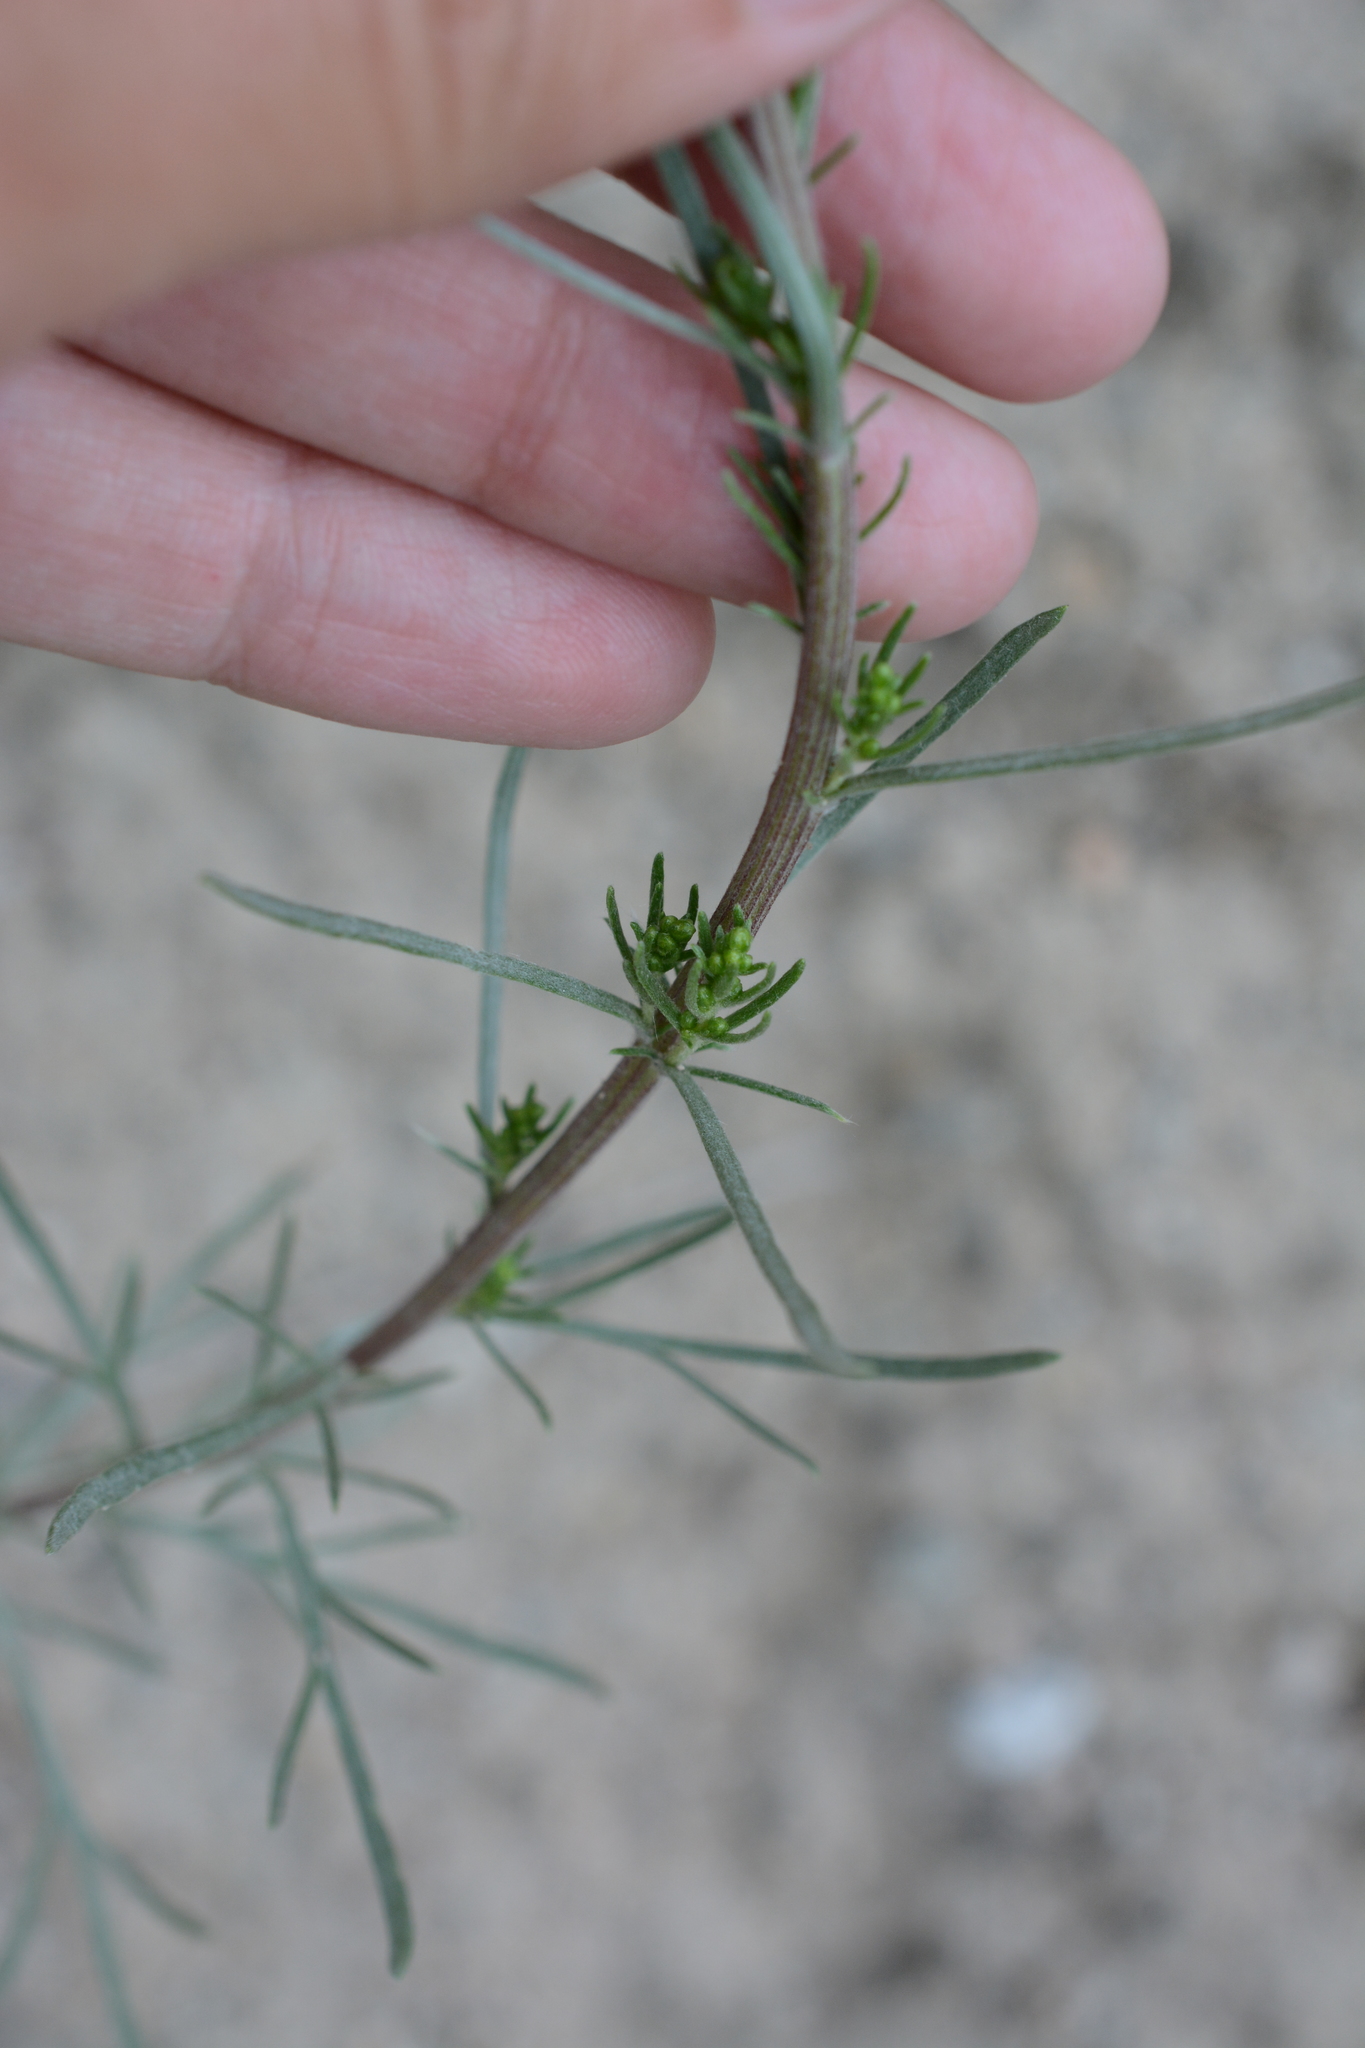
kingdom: Plantae
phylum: Tracheophyta
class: Magnoliopsida
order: Asterales
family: Asteraceae
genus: Artemisia
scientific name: Artemisia campestris
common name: Field wormwood
